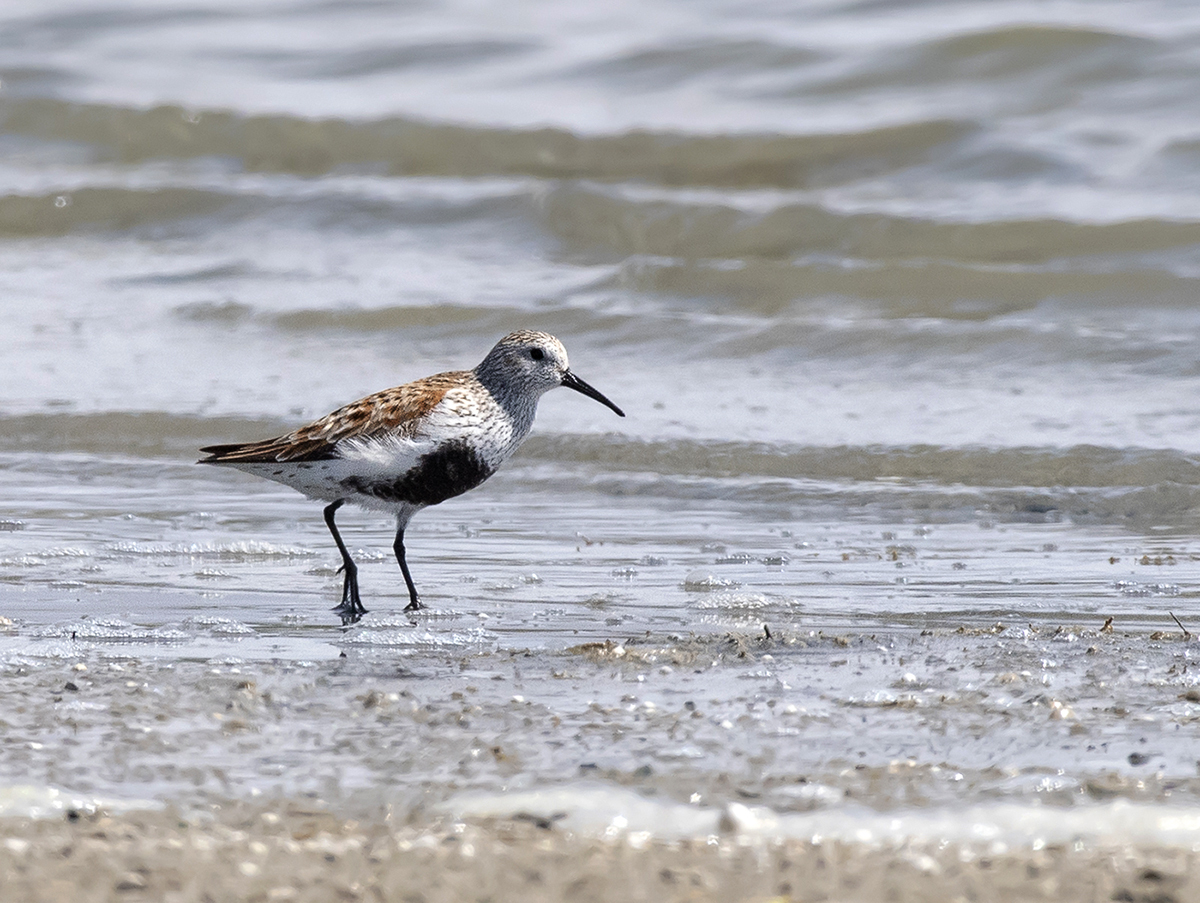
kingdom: Animalia
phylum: Chordata
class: Aves
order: Charadriiformes
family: Scolopacidae
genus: Calidris
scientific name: Calidris alpina
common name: Dunlin
